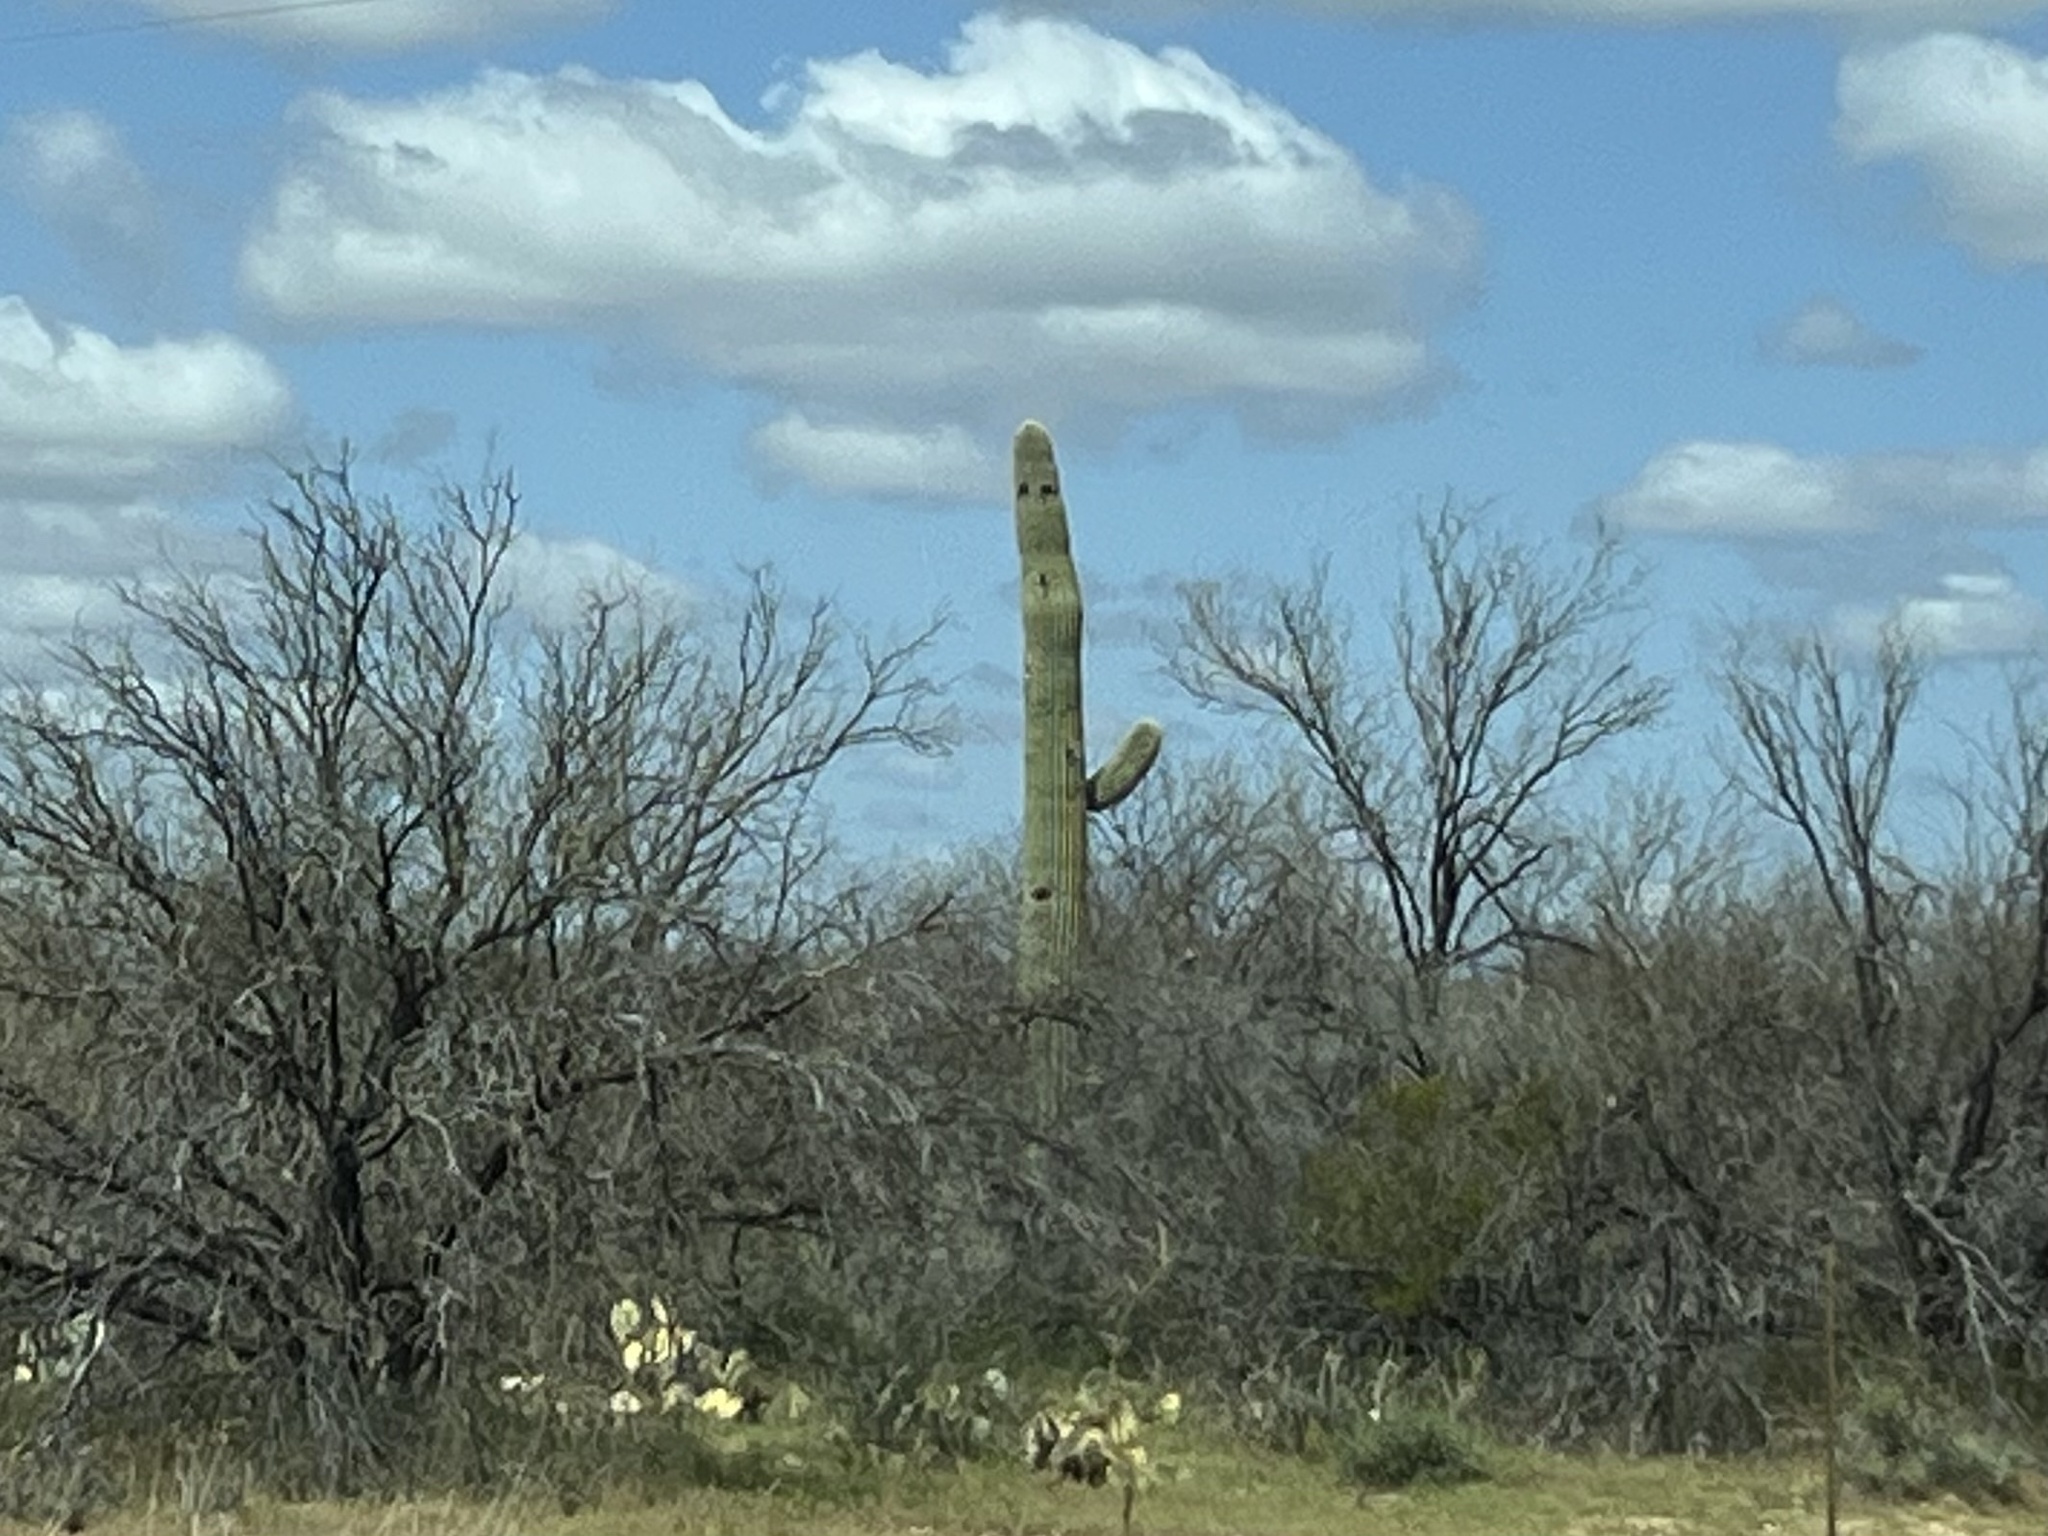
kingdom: Plantae
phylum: Tracheophyta
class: Magnoliopsida
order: Caryophyllales
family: Cactaceae
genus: Carnegiea
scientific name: Carnegiea gigantea
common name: Saguaro
